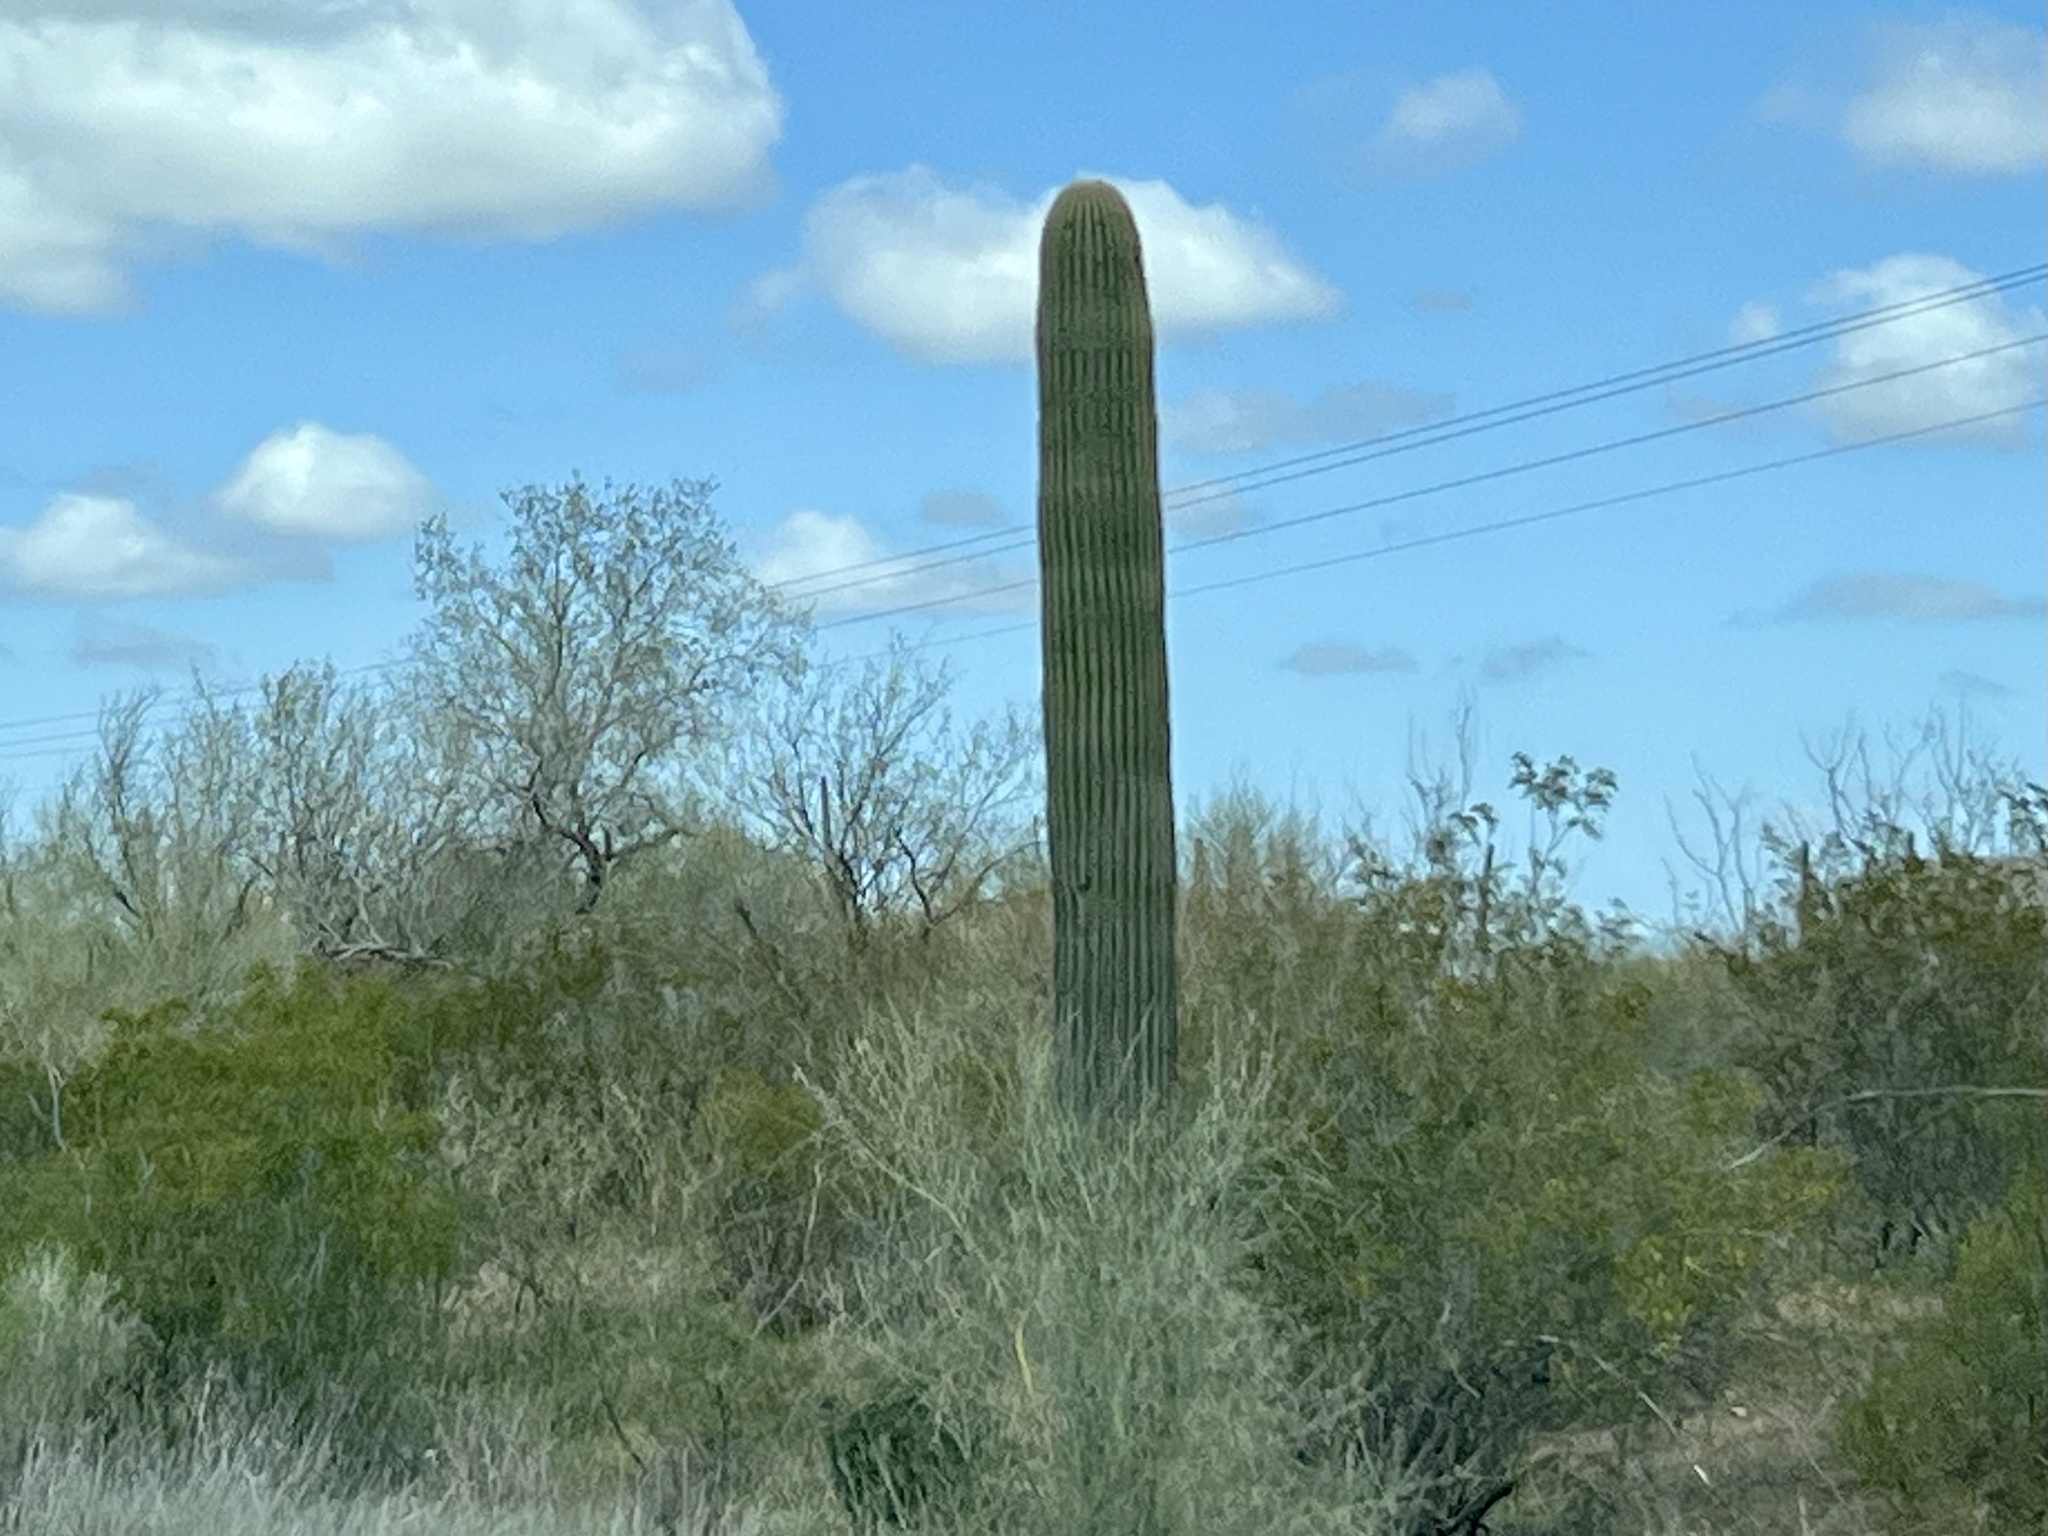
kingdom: Plantae
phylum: Tracheophyta
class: Magnoliopsida
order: Caryophyllales
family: Cactaceae
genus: Carnegiea
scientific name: Carnegiea gigantea
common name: Saguaro
